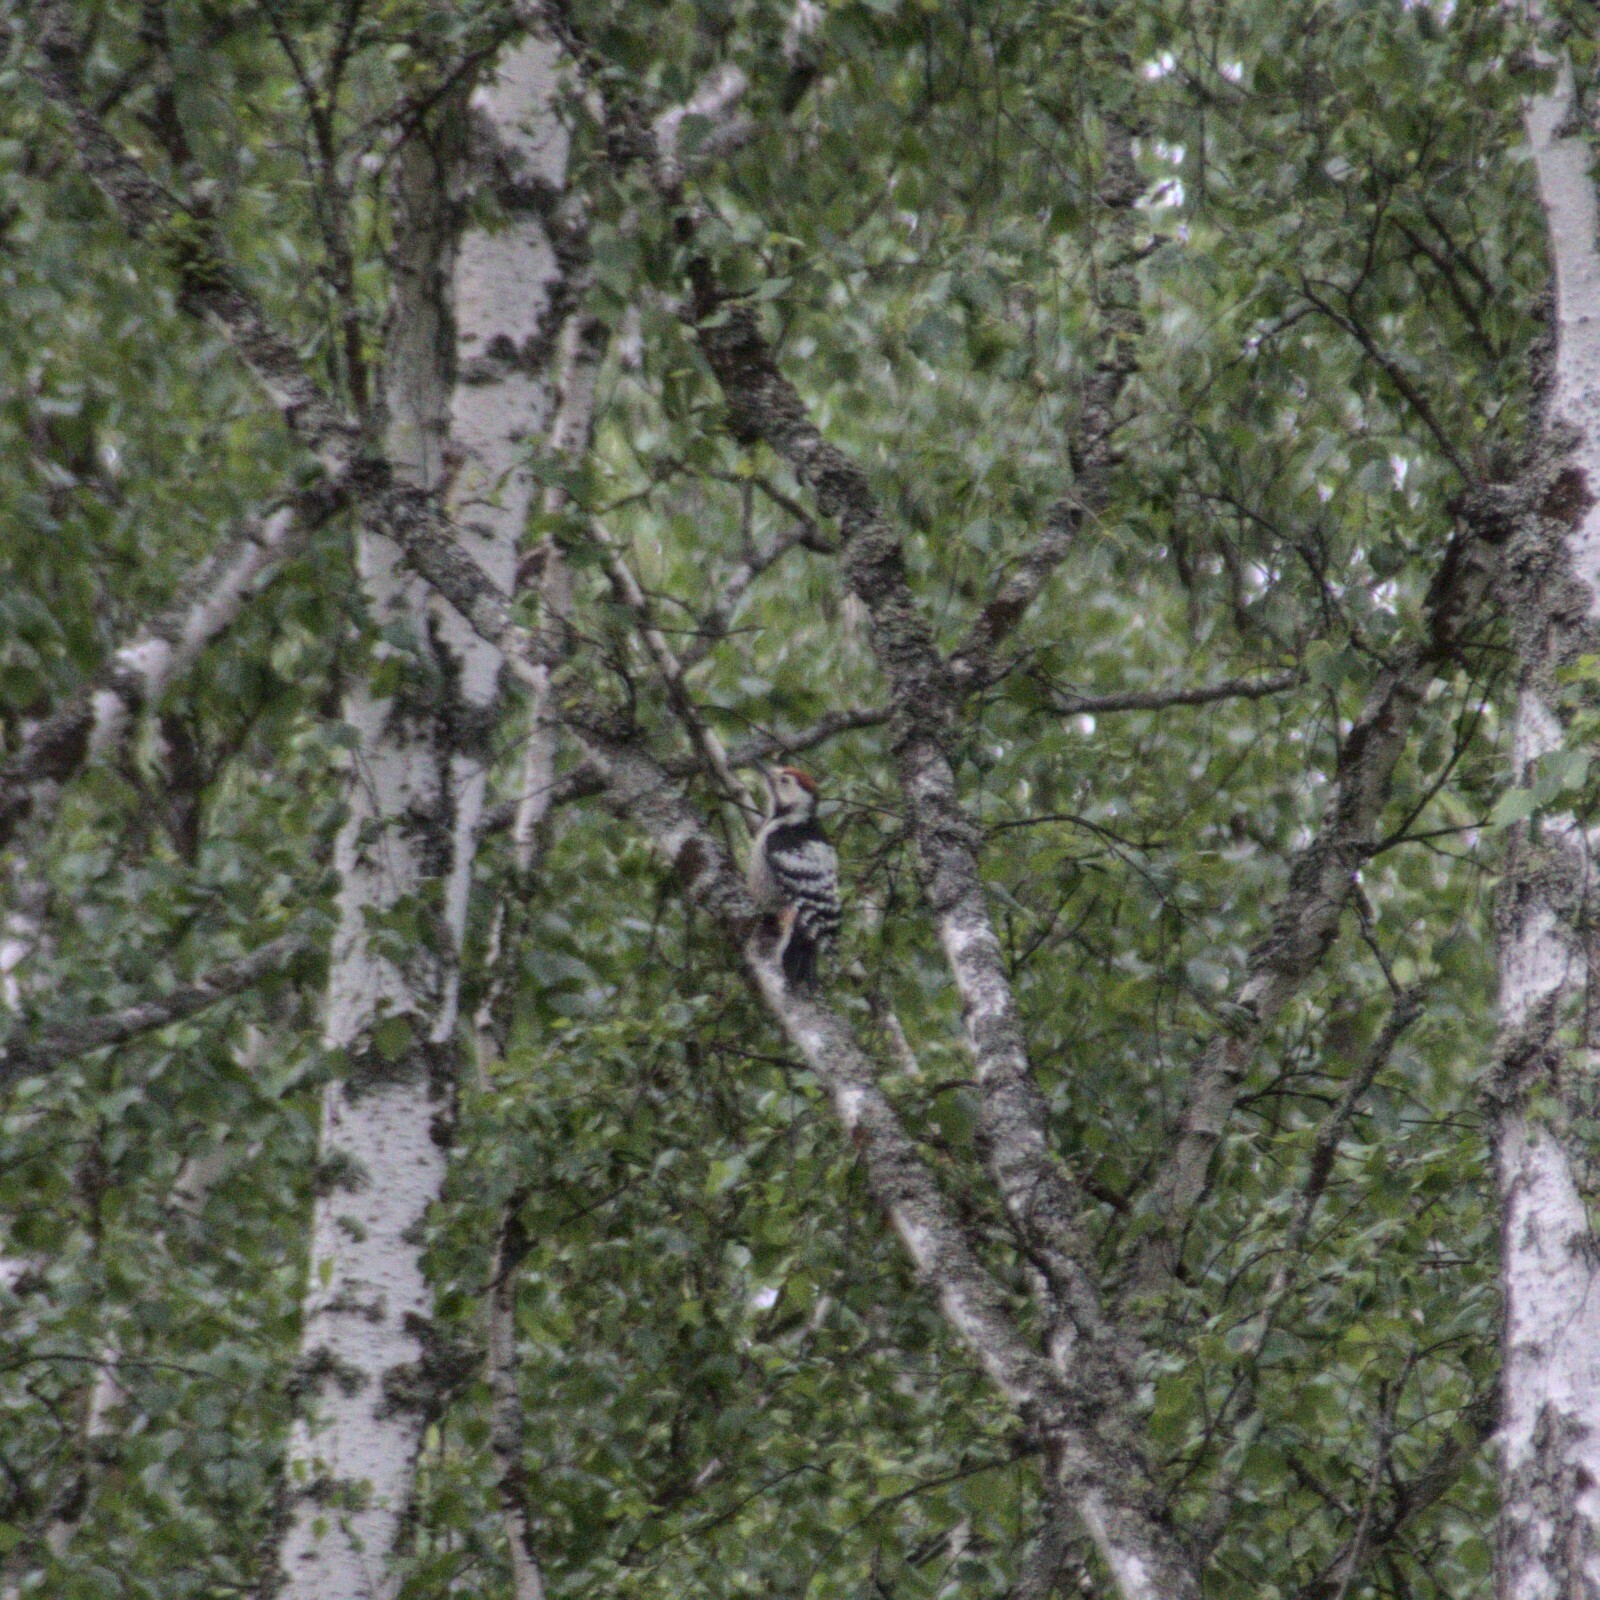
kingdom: Animalia
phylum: Chordata
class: Aves
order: Piciformes
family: Picidae
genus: Dendrocopos
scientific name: Dendrocopos leucotos
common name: White-backed woodpecker
